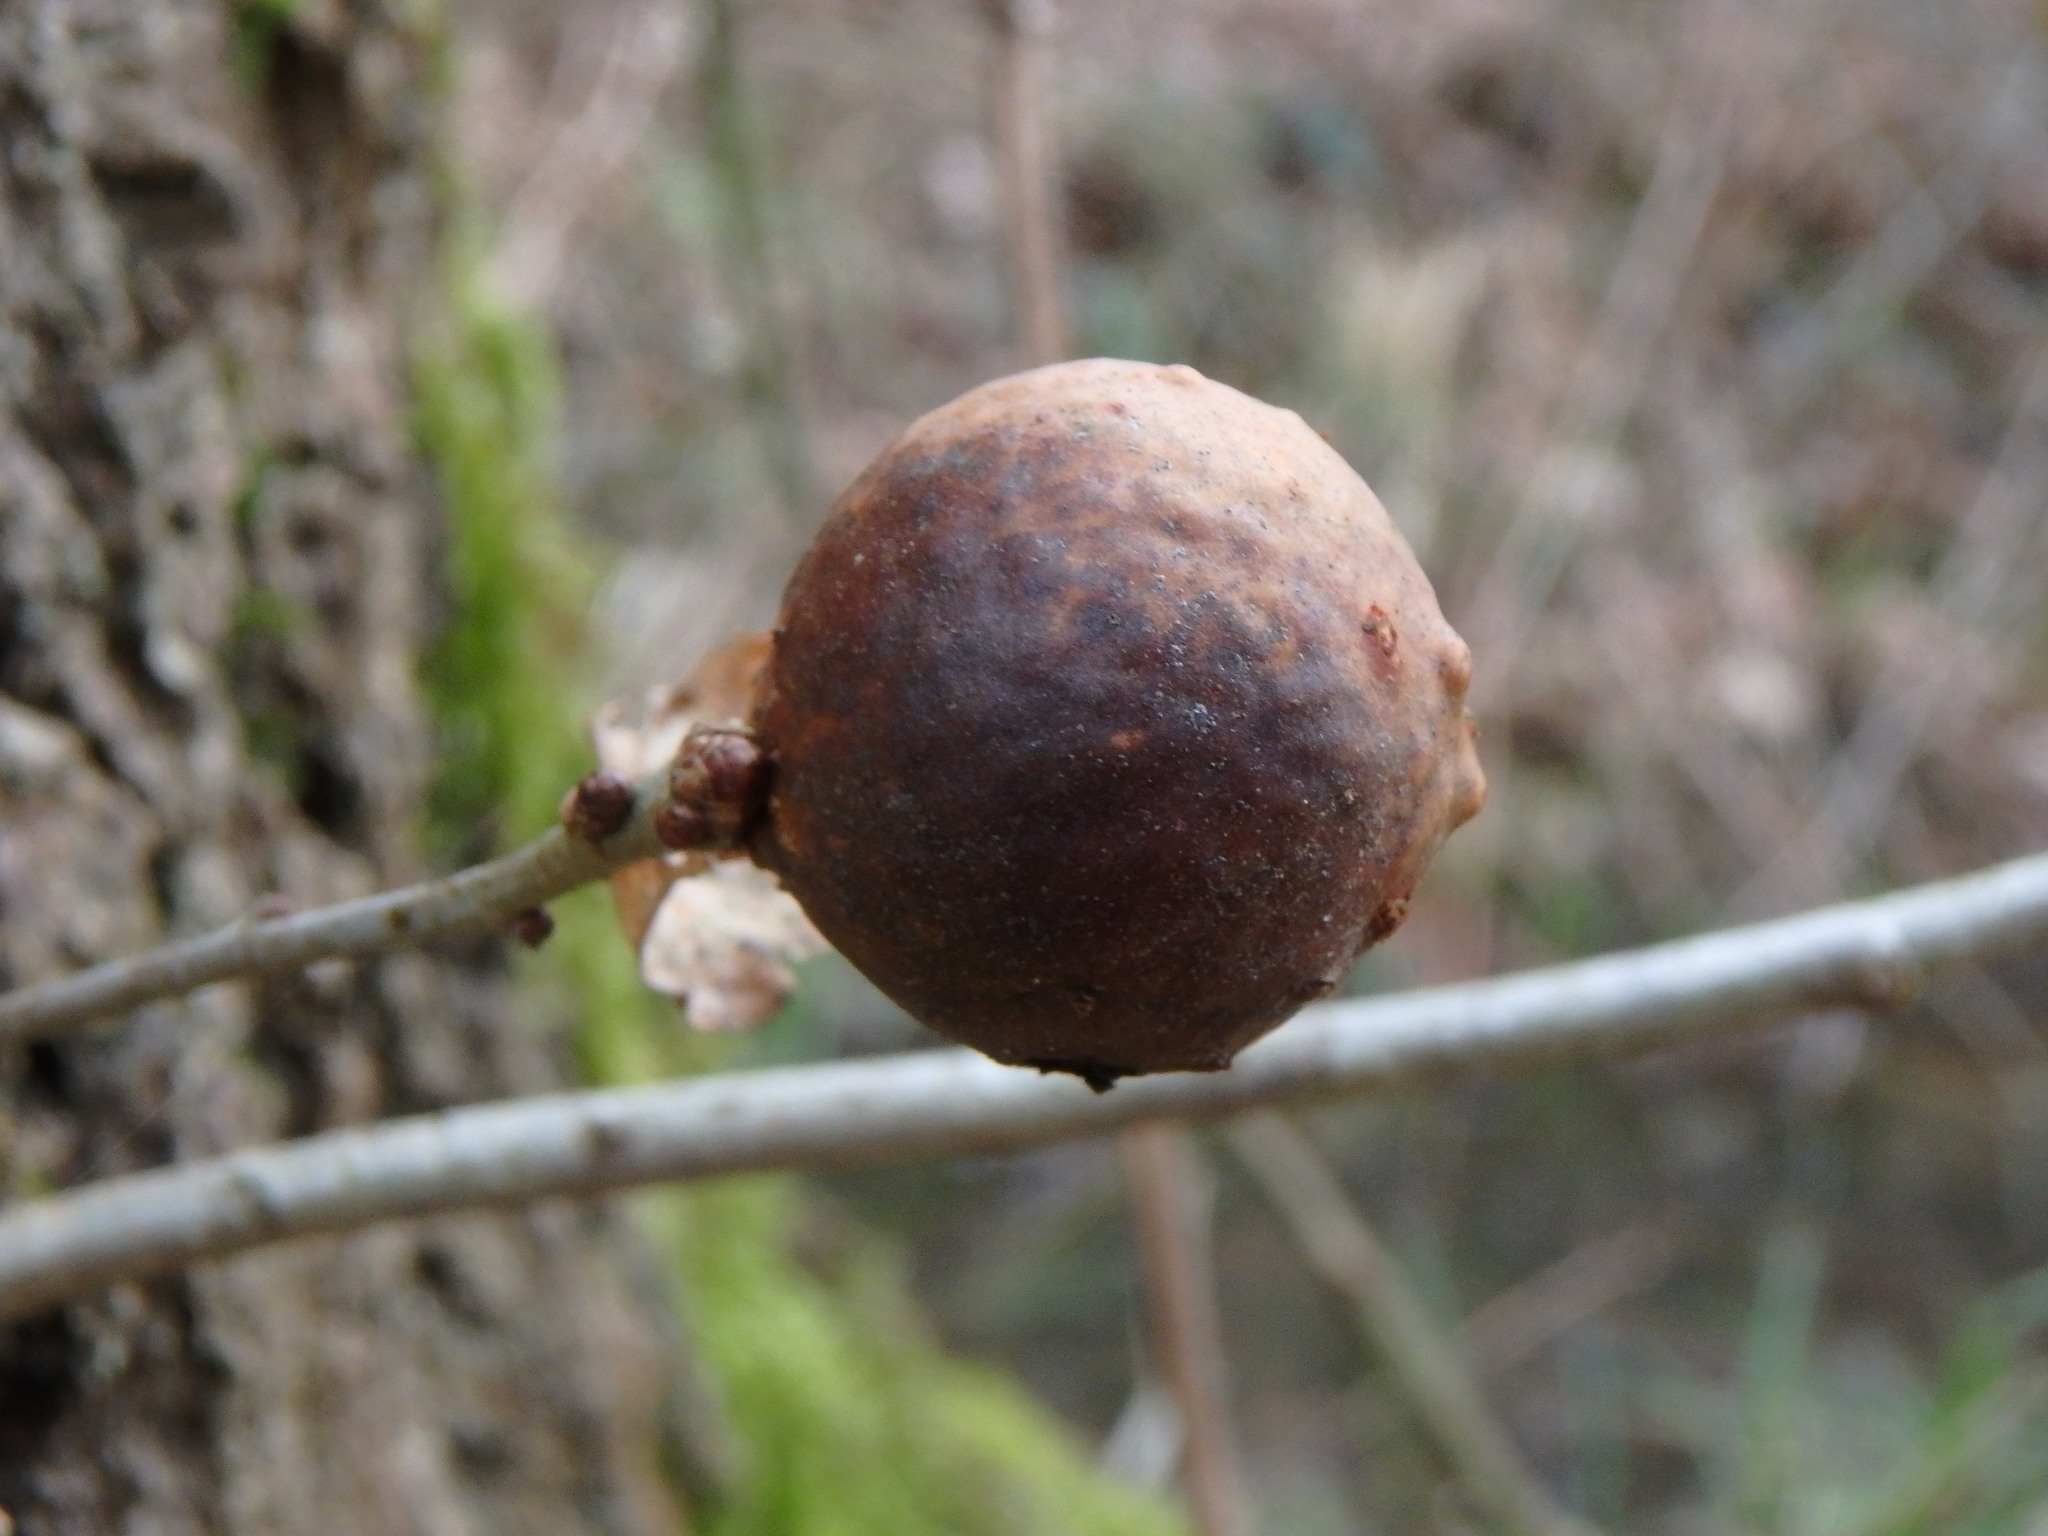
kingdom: Animalia
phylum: Arthropoda
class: Insecta
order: Hymenoptera
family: Cynipidae
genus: Andricus
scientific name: Andricus kollari
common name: Marble gall
